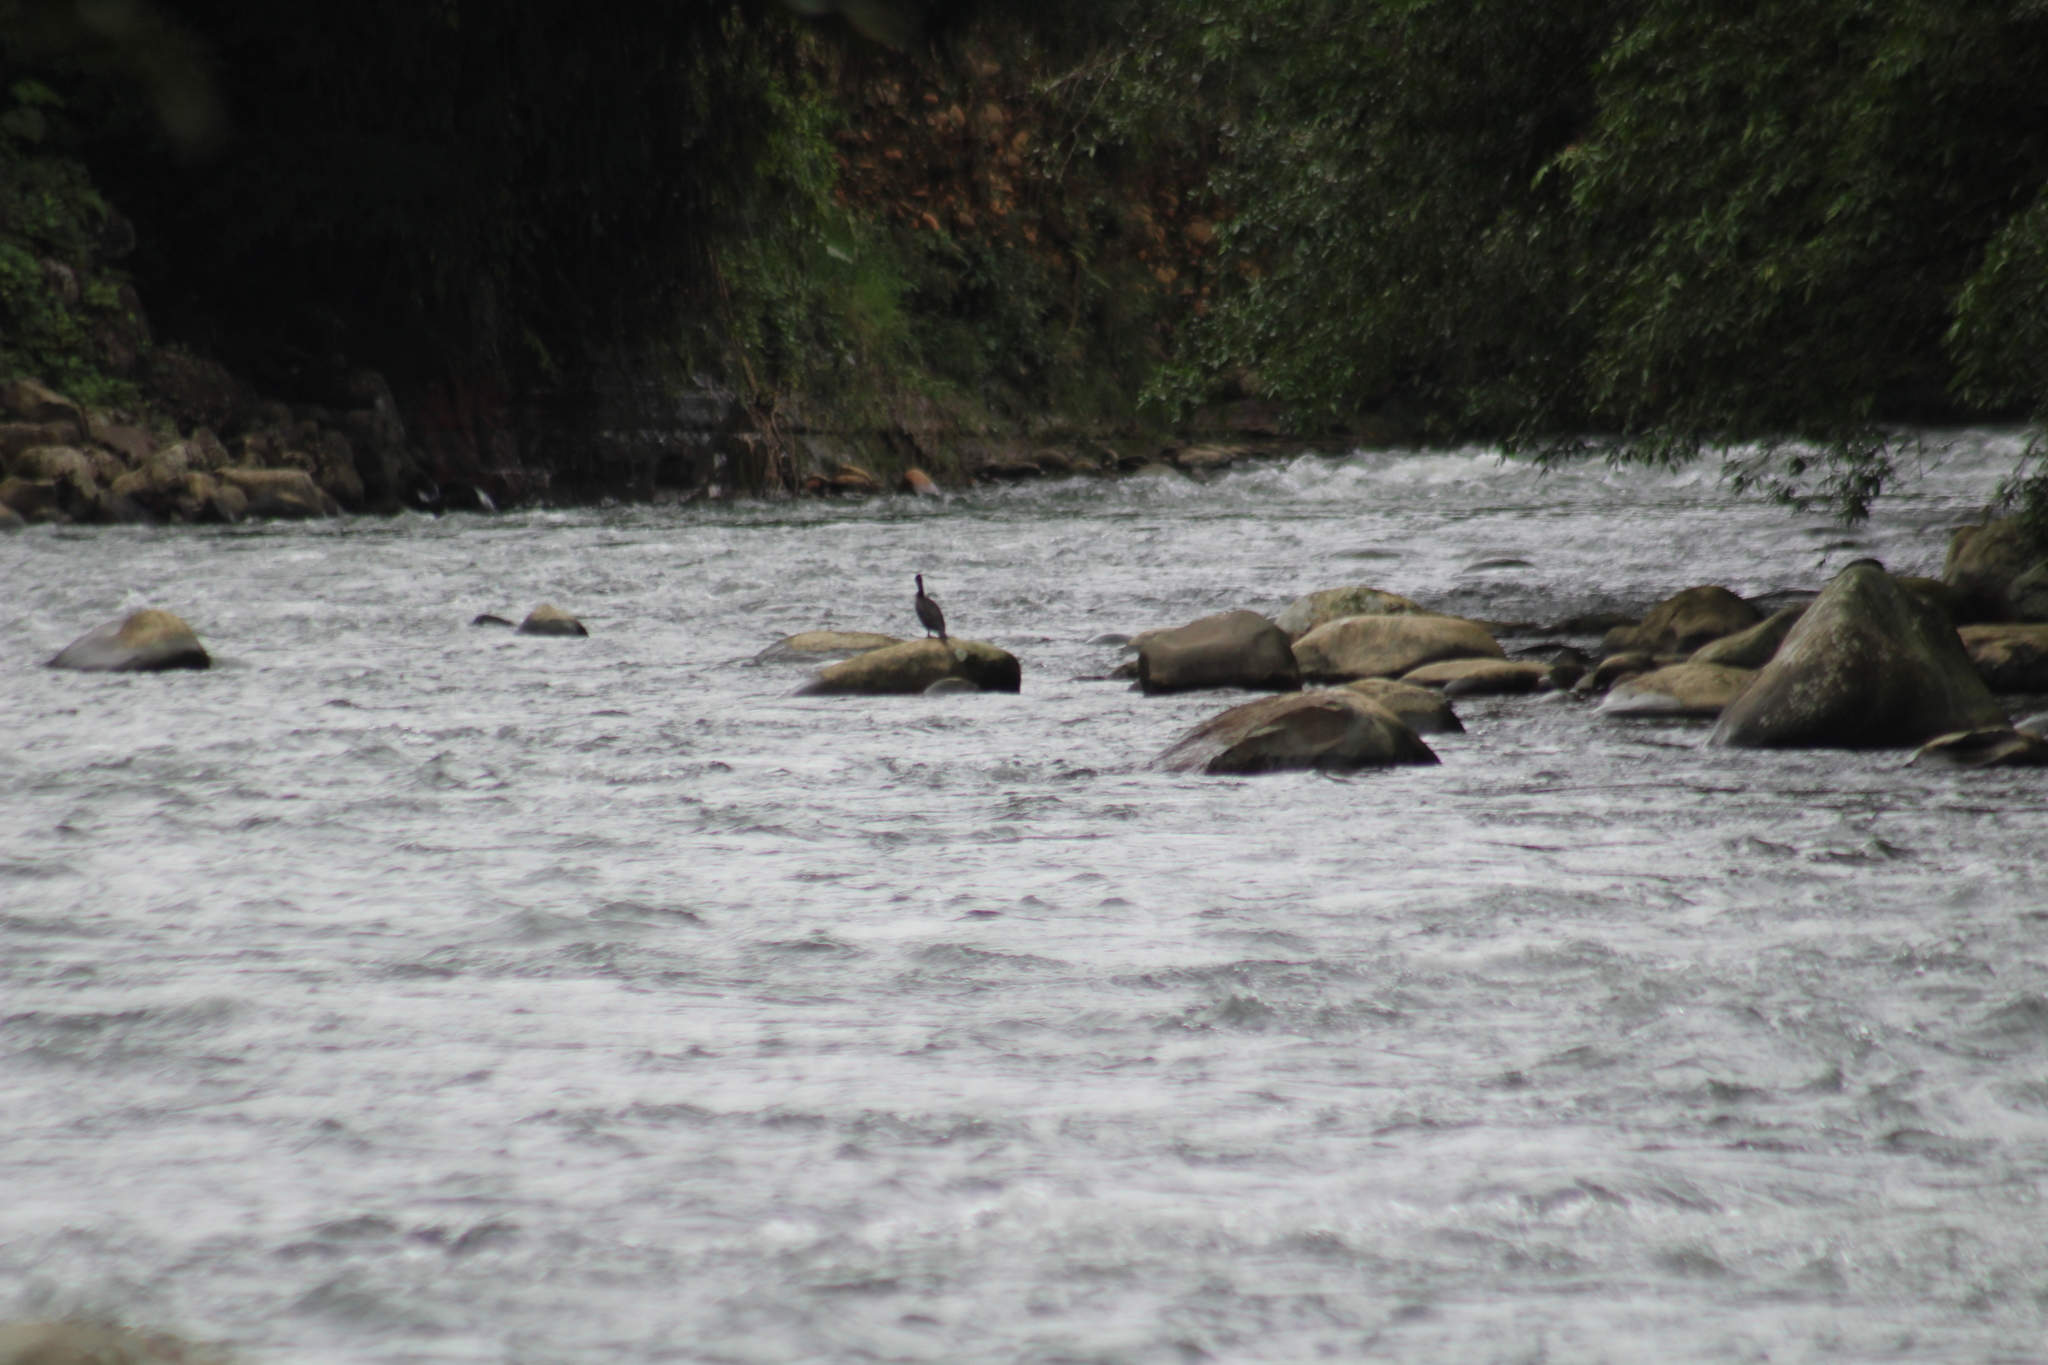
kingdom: Animalia
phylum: Chordata
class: Aves
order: Suliformes
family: Phalacrocoracidae
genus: Phalacrocorax
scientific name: Phalacrocorax brasilianus
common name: Neotropic cormorant
